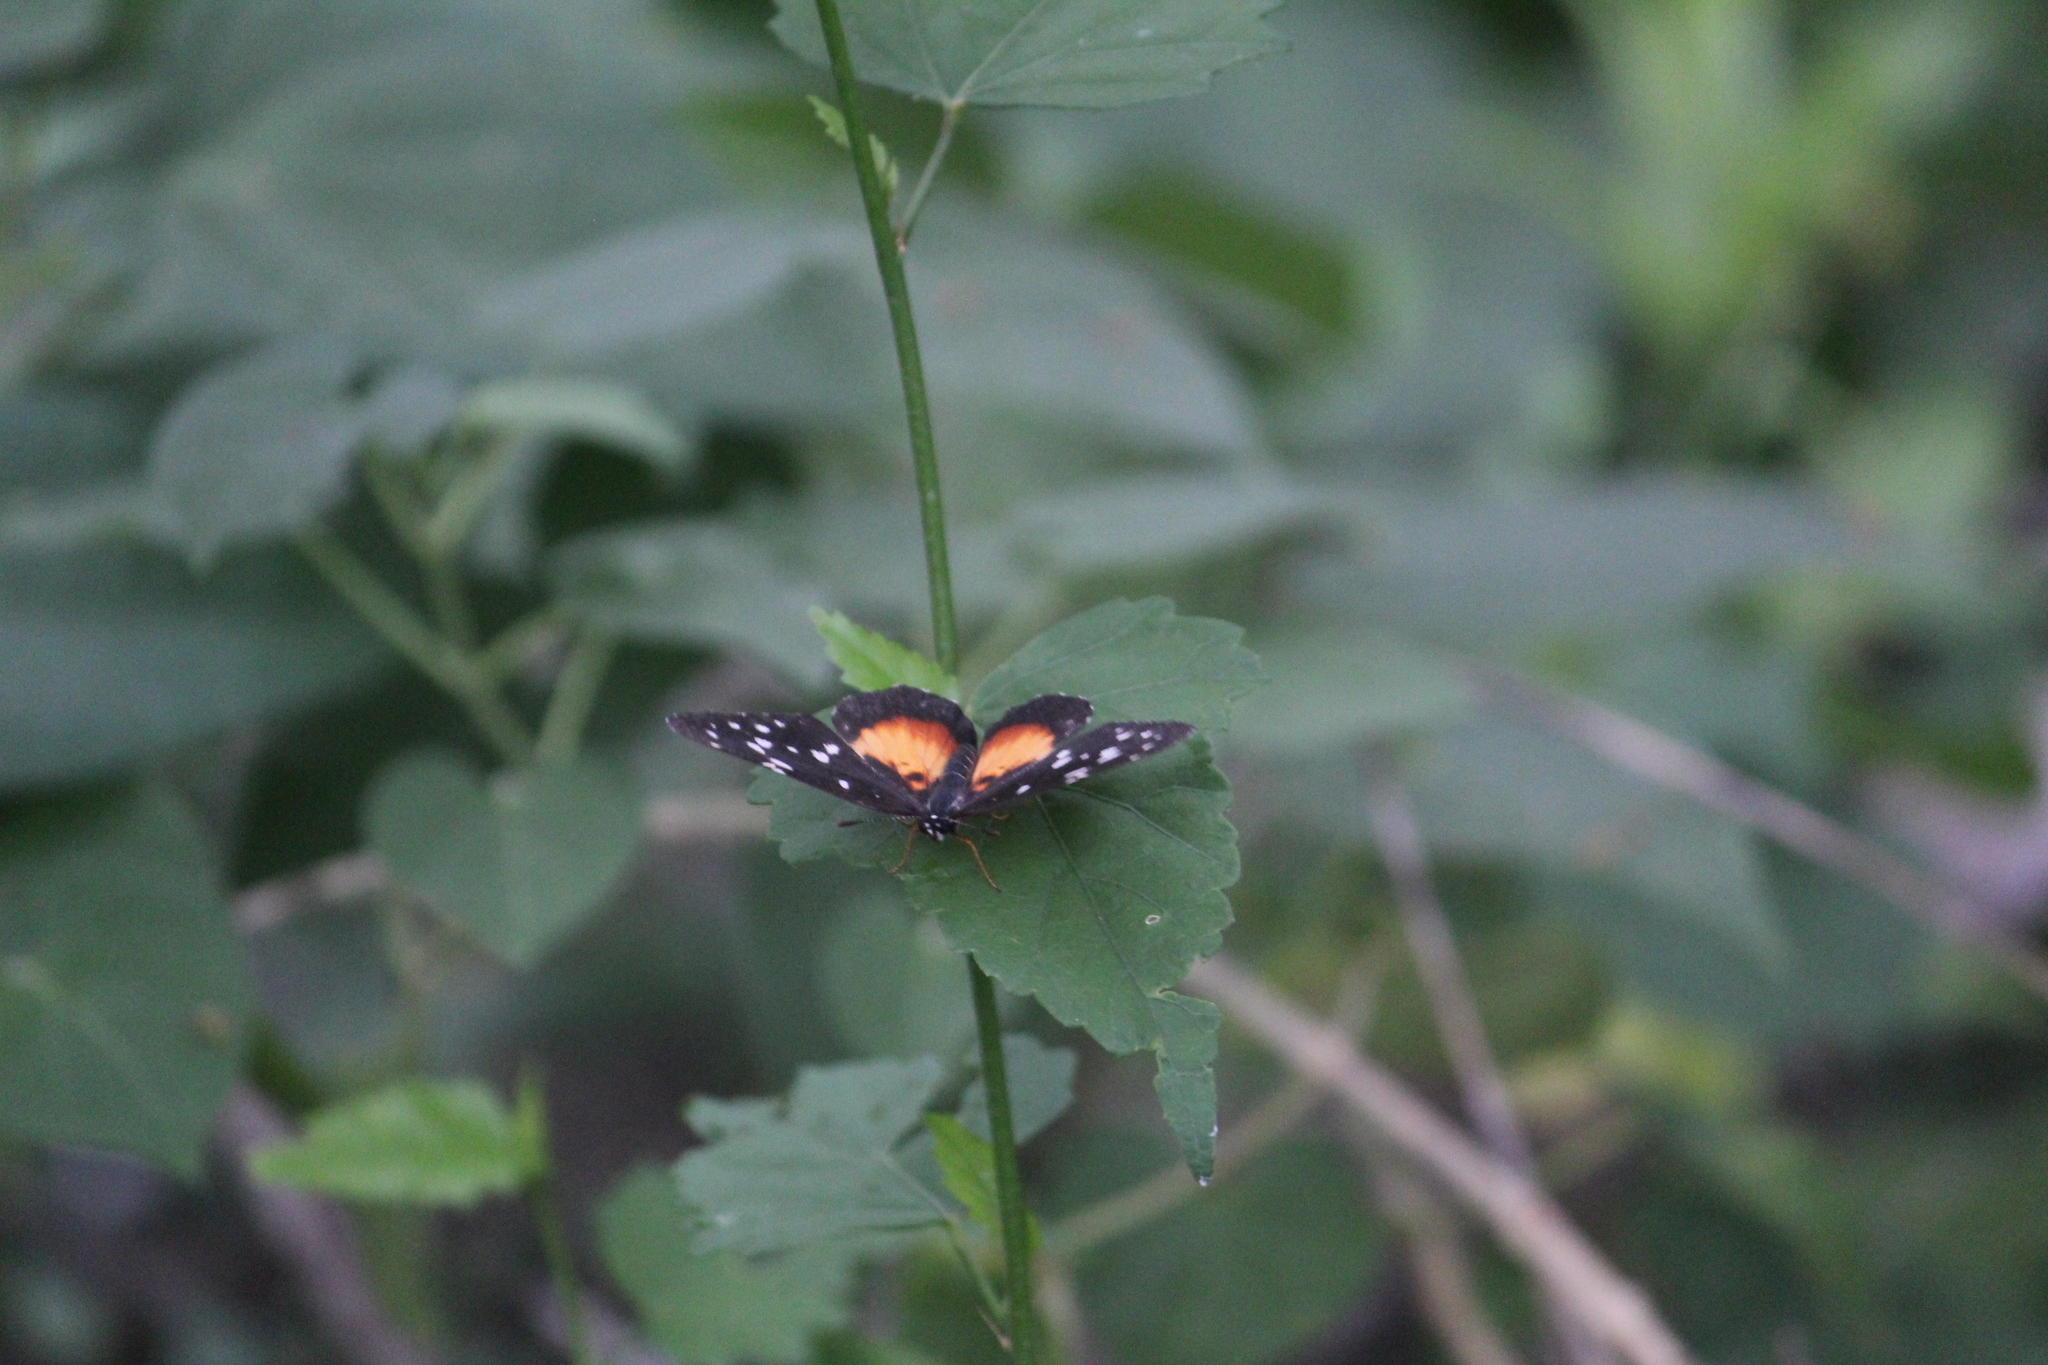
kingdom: Animalia
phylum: Arthropoda
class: Insecta
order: Lepidoptera
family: Nymphalidae
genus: Chlosyne
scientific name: Chlosyne rosita
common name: Rosita patch
